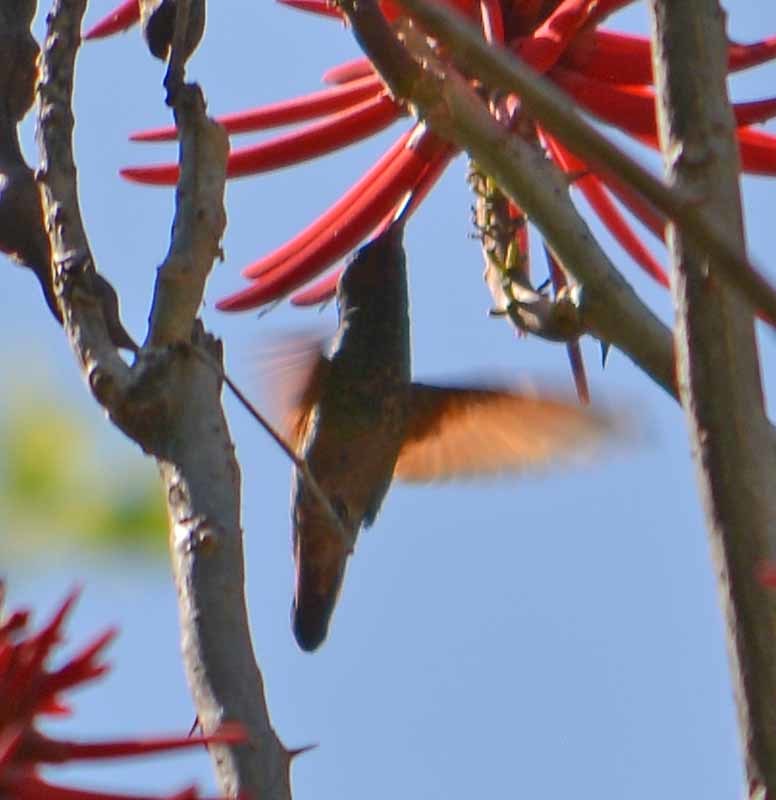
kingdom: Animalia
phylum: Chordata
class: Aves
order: Apodiformes
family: Trochilidae
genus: Saucerottia
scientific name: Saucerottia beryllina
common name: Berylline hummingbird
